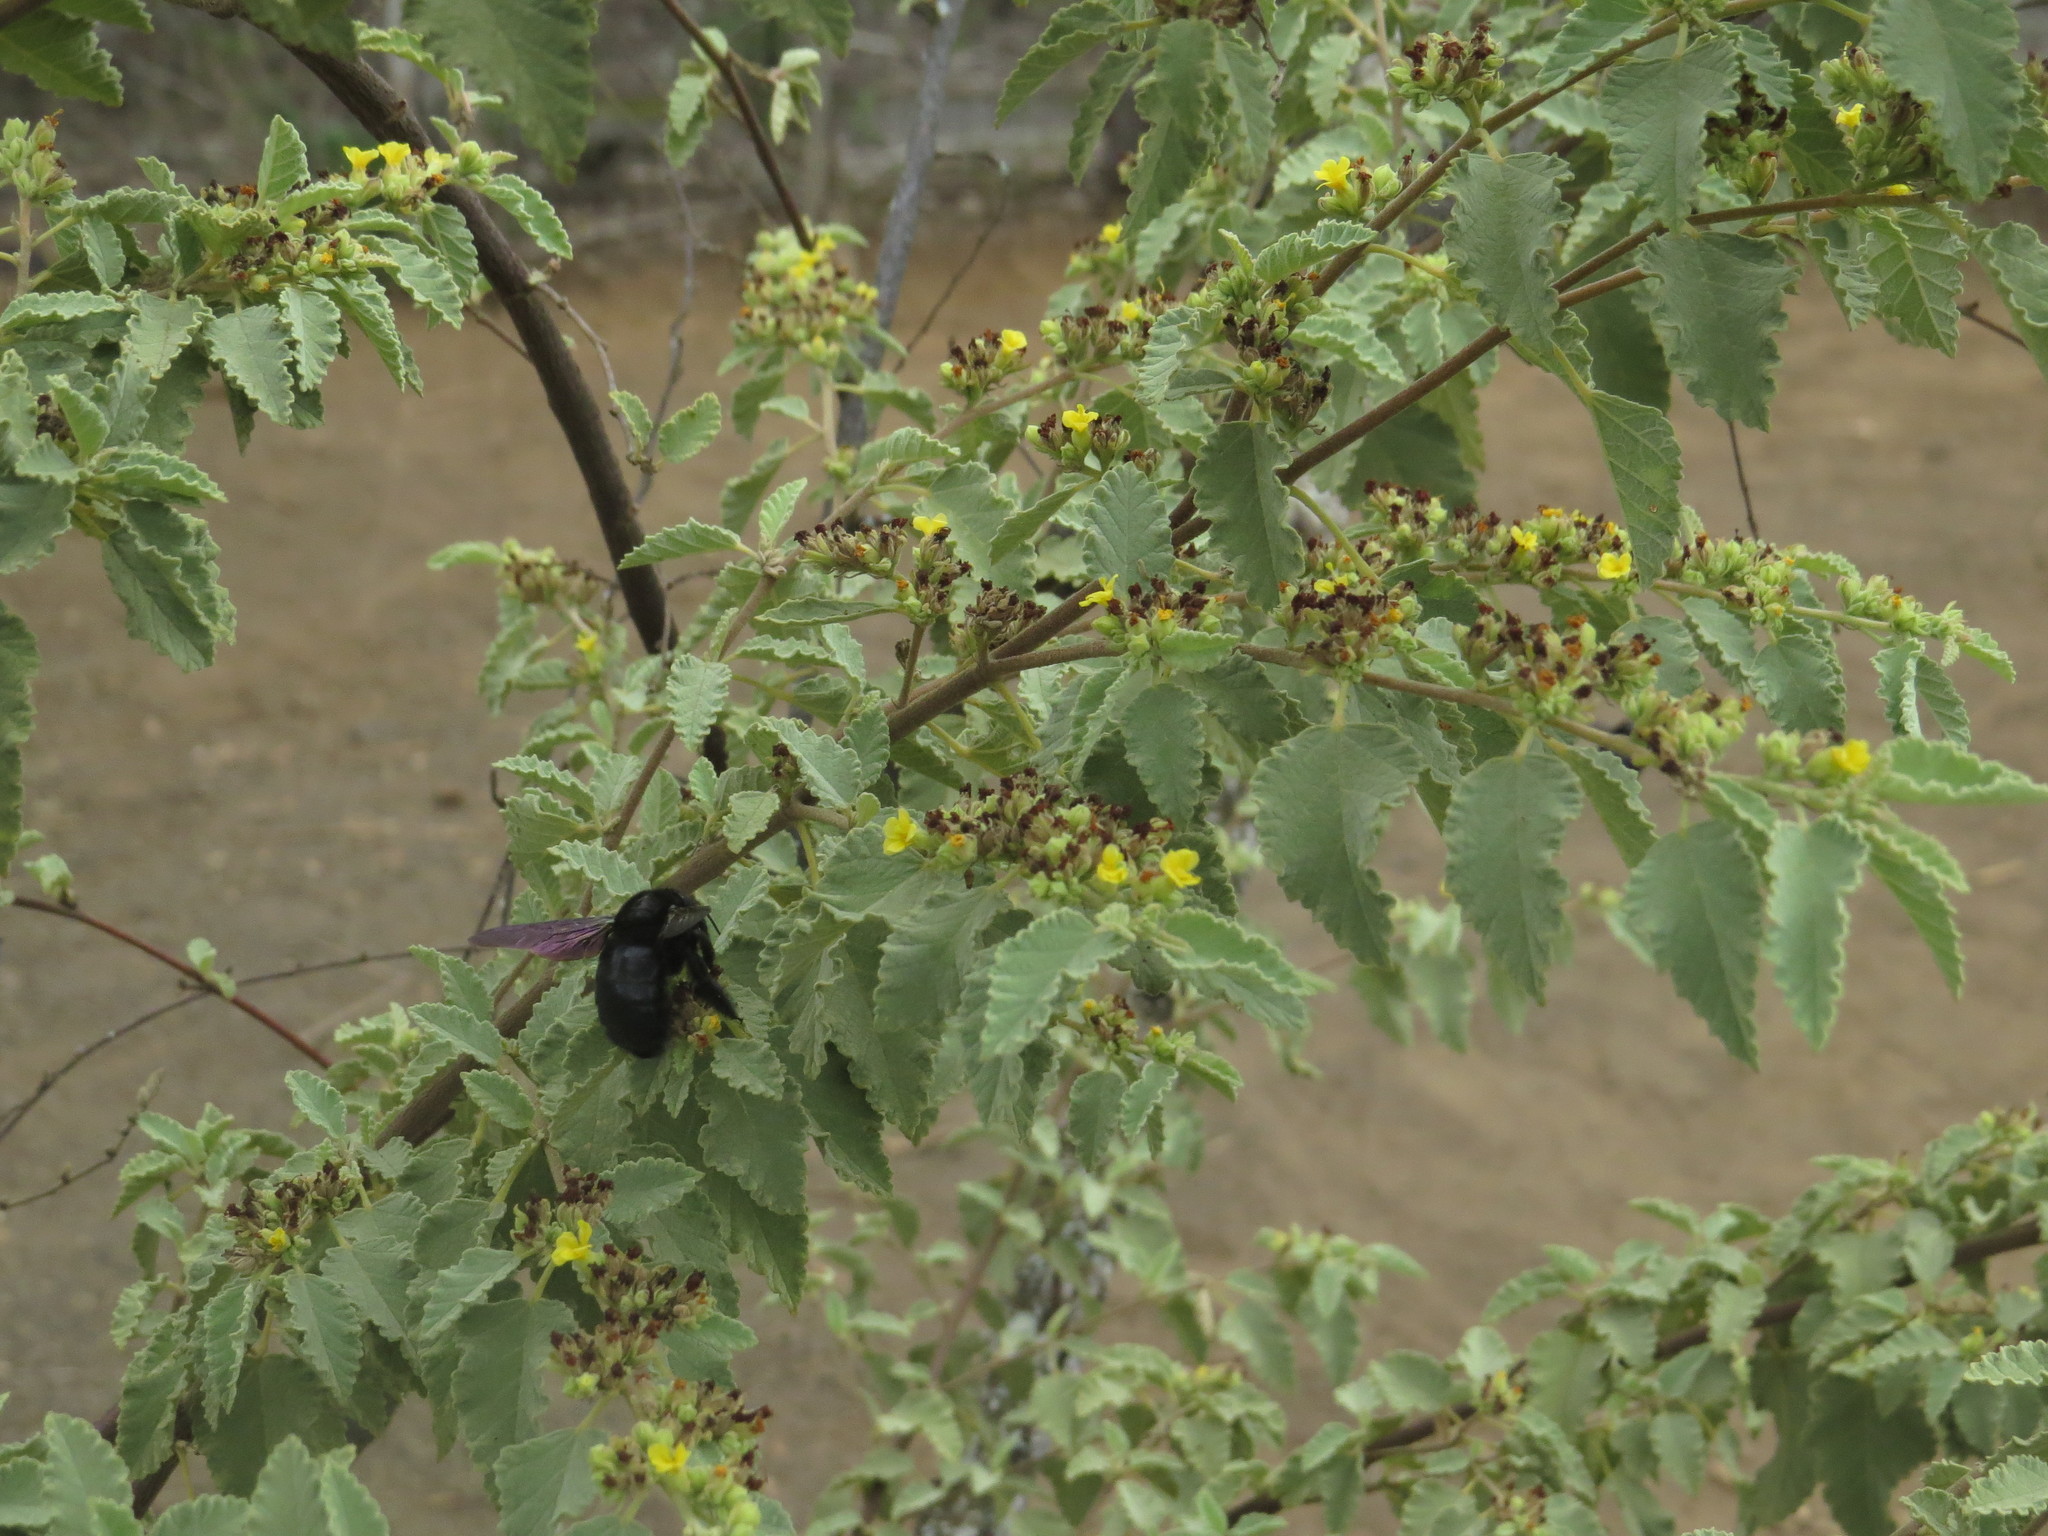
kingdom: Animalia
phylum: Arthropoda
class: Insecta
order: Hymenoptera
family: Apidae
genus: Xylocopa
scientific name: Xylocopa darwini
